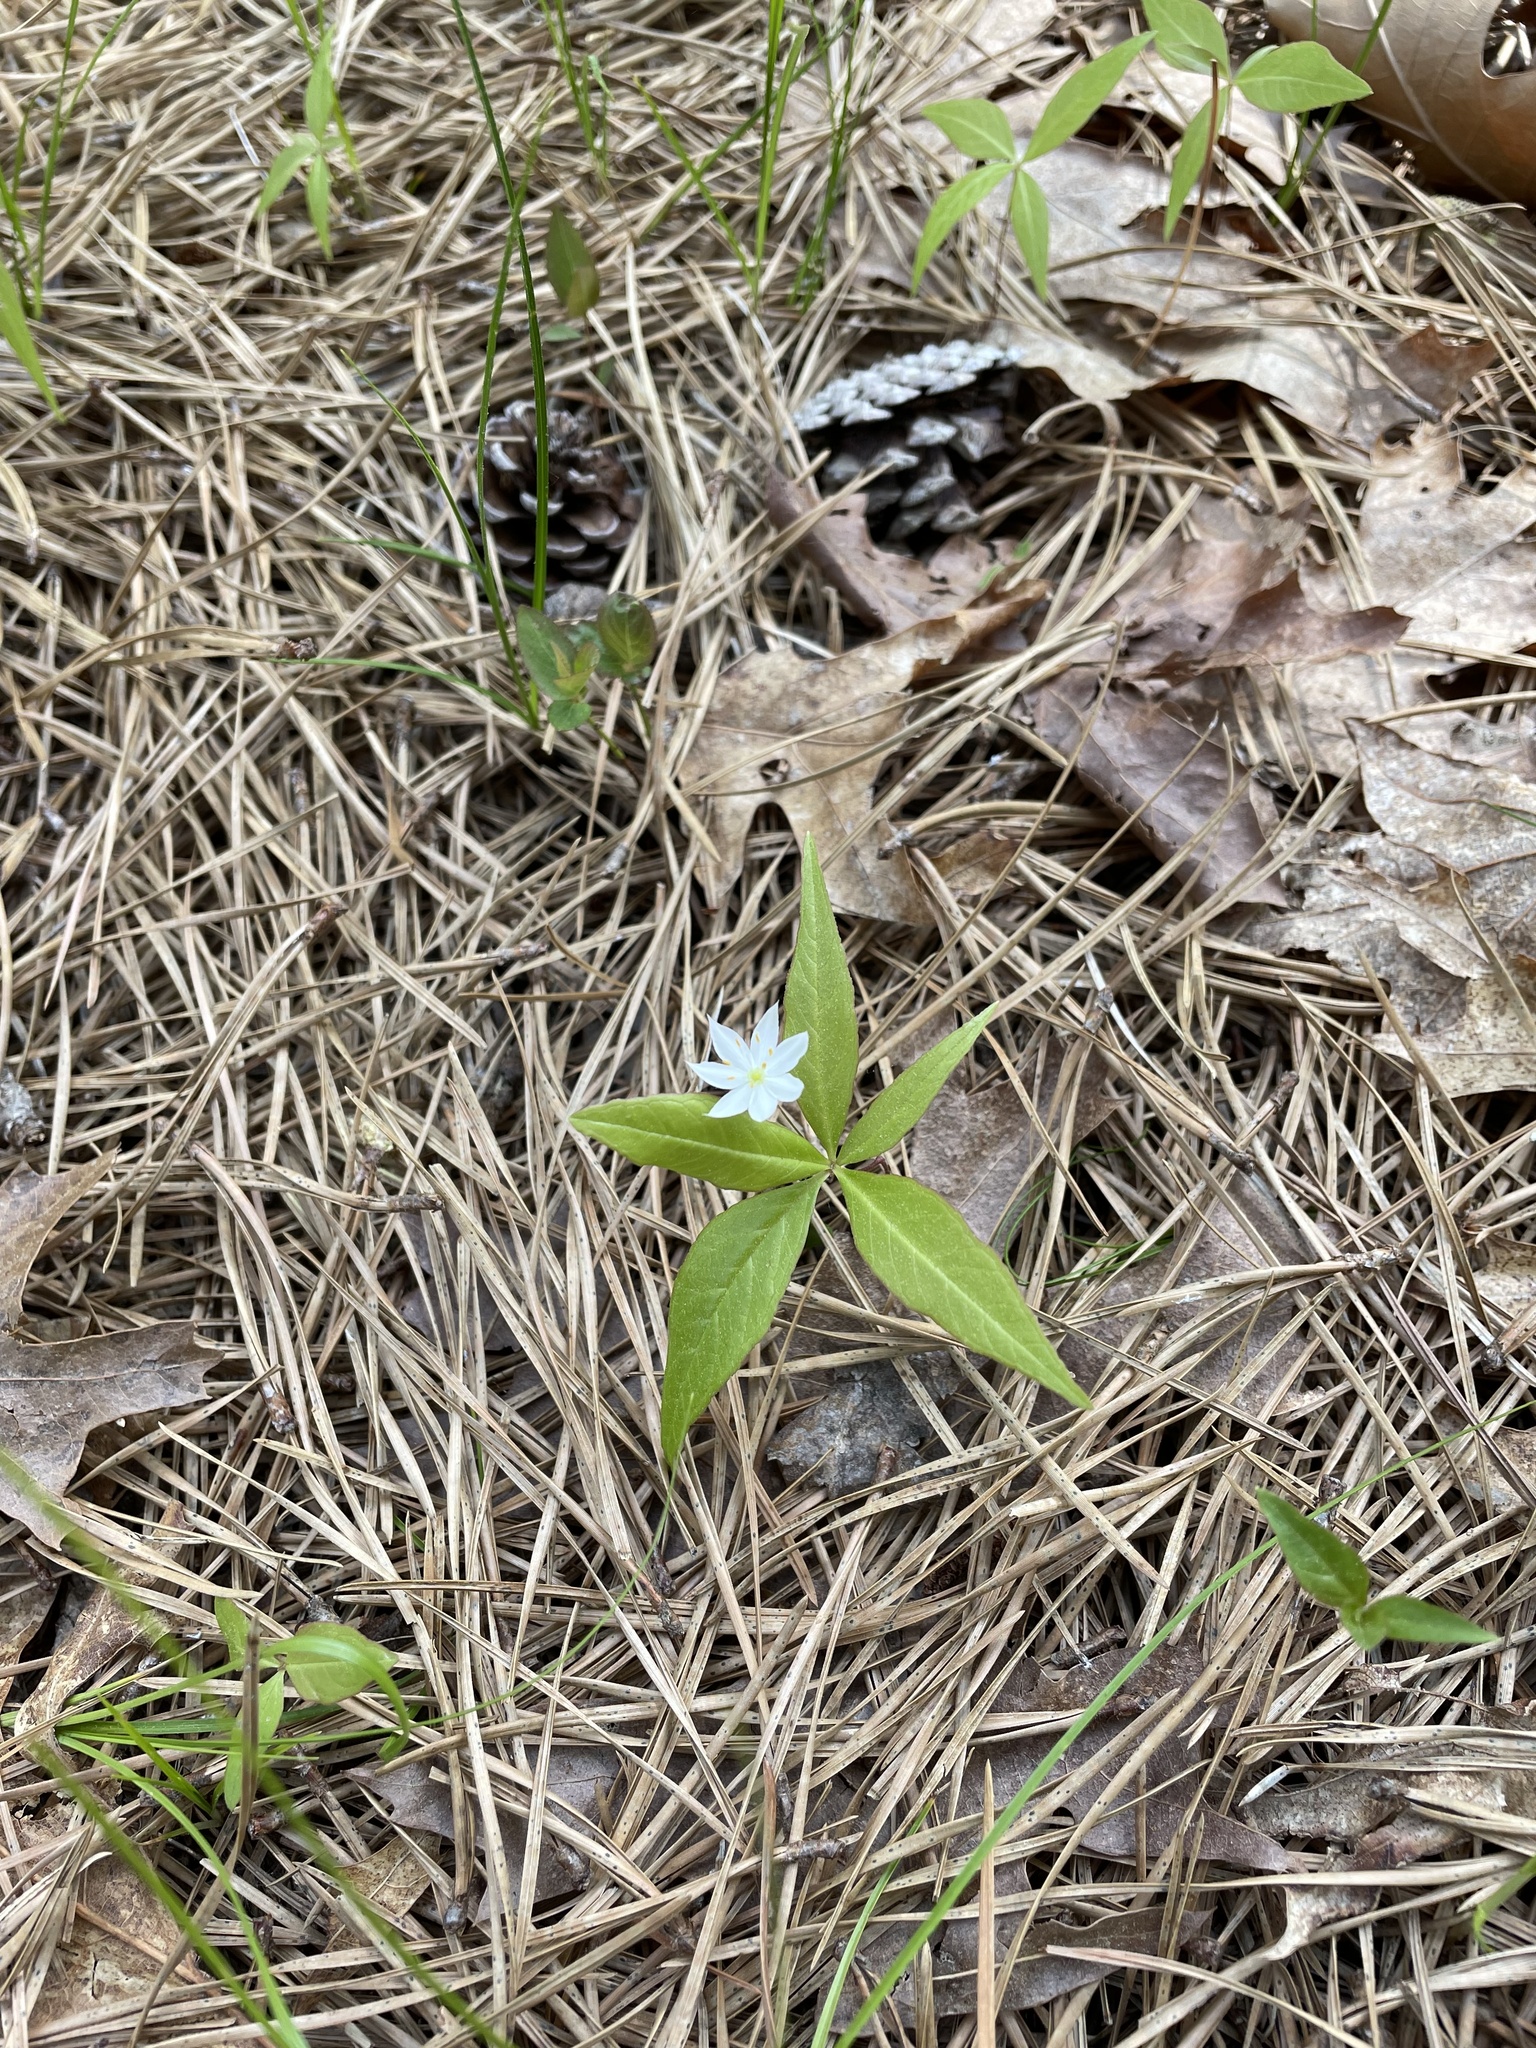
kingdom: Plantae
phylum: Tracheophyta
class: Magnoliopsida
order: Ericales
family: Primulaceae
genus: Lysimachia
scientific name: Lysimachia borealis
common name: American starflower
